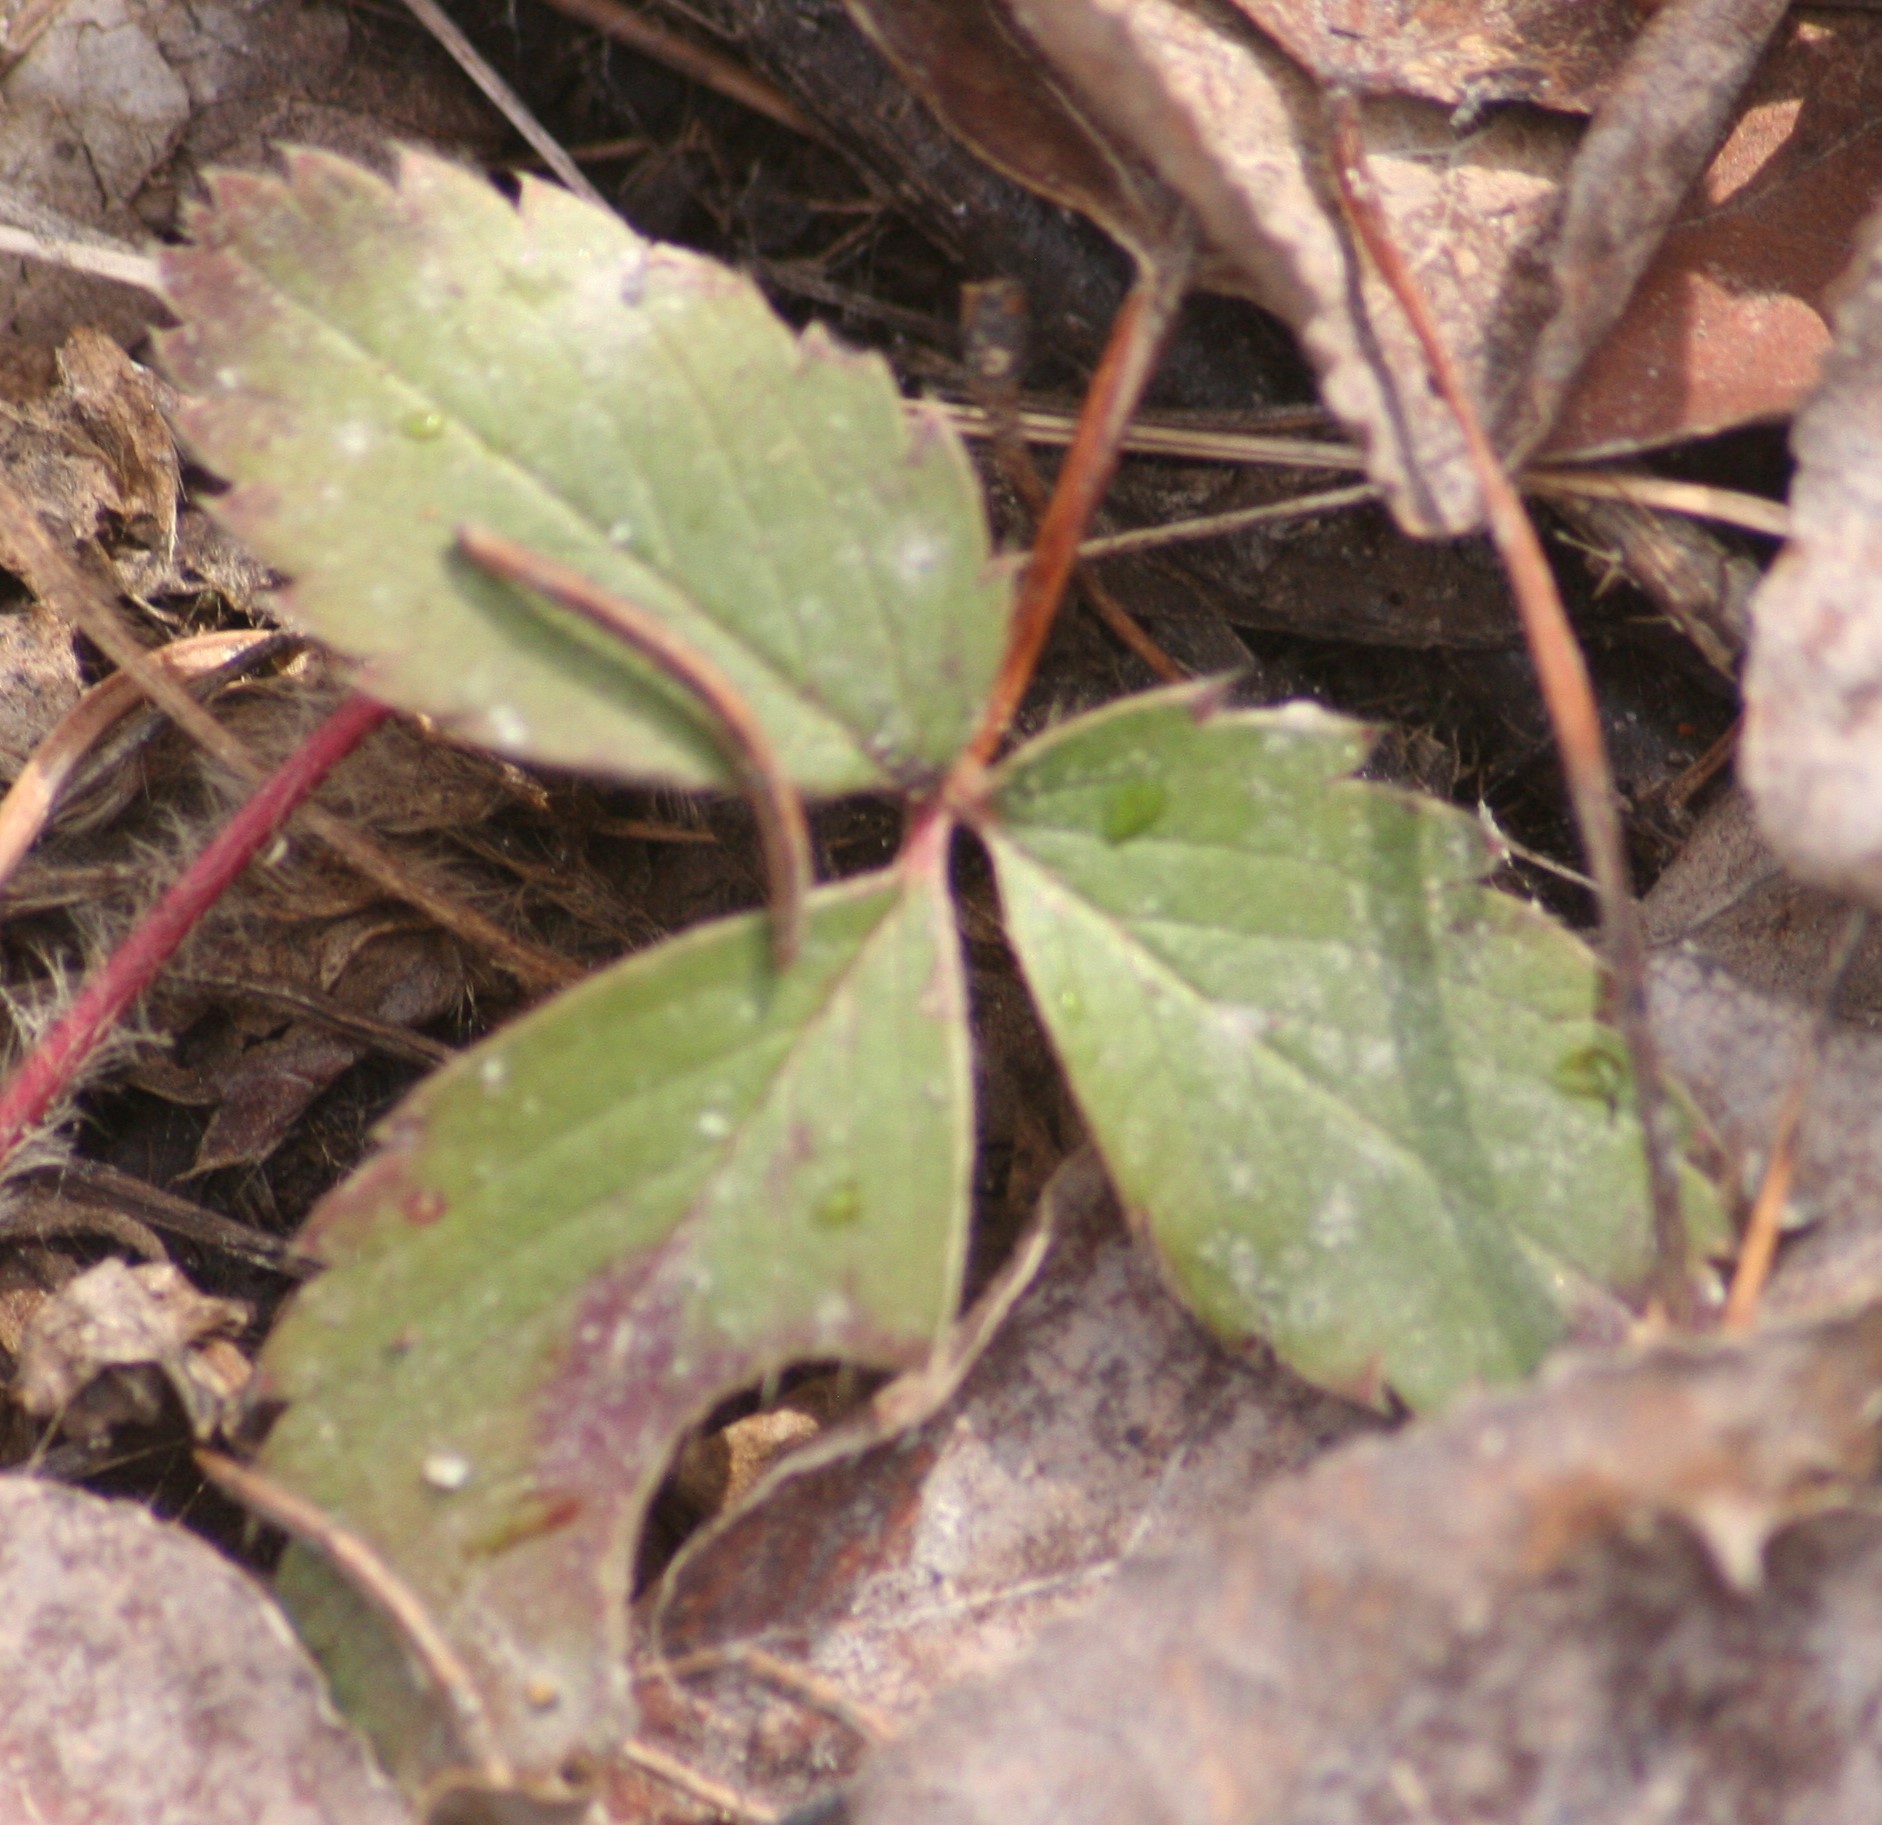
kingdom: Plantae
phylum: Tracheophyta
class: Magnoliopsida
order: Rosales
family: Rosaceae
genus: Fragaria
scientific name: Fragaria virginiana
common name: Thickleaved wild strawberry
